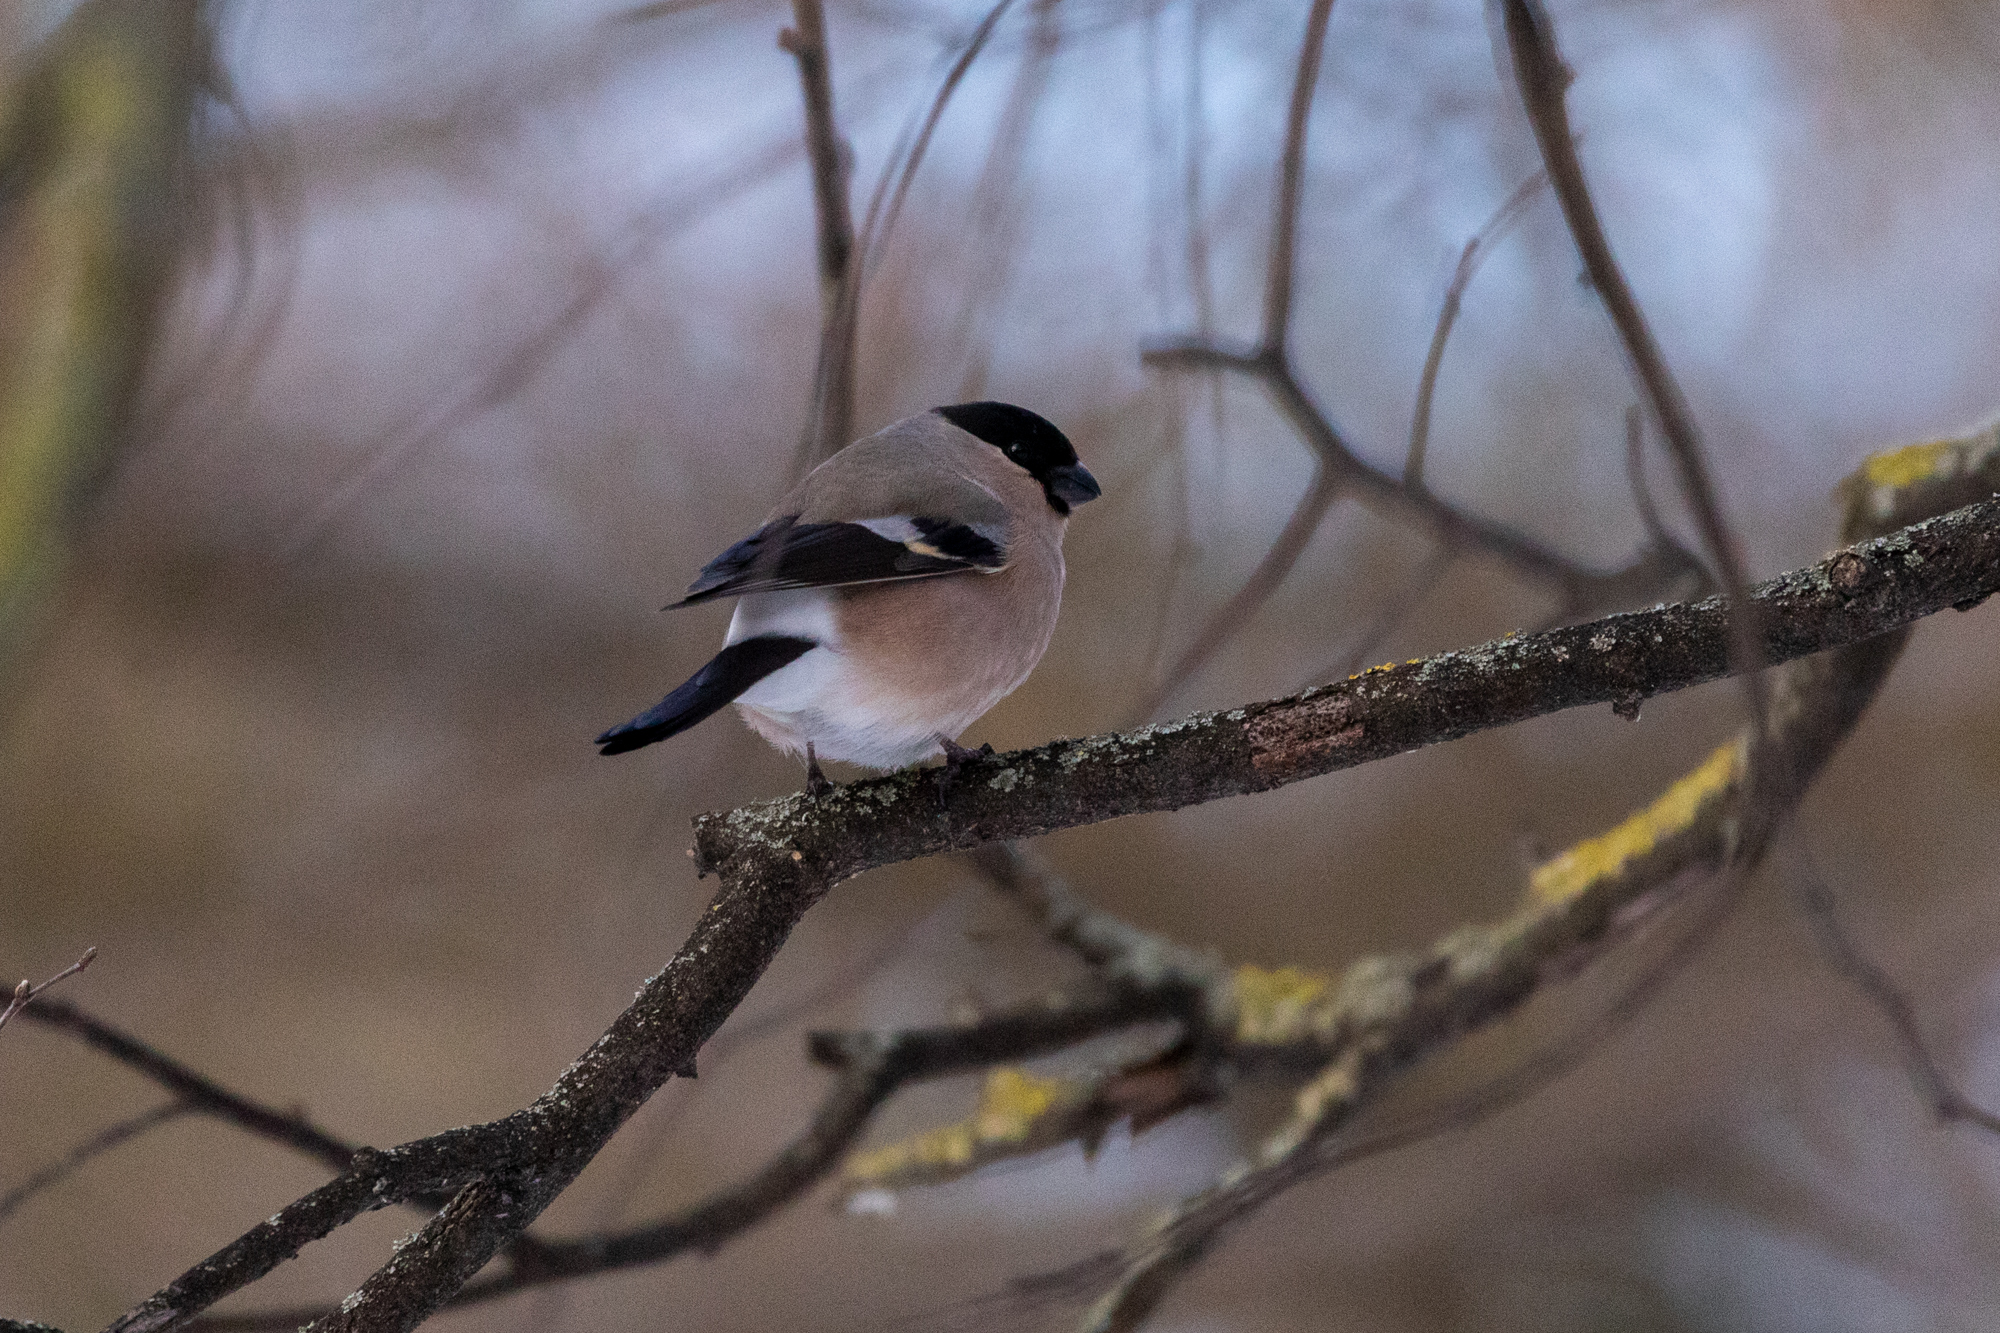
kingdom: Animalia
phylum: Chordata
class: Aves
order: Passeriformes
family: Fringillidae
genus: Pyrrhula
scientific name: Pyrrhula pyrrhula
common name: Eurasian bullfinch
